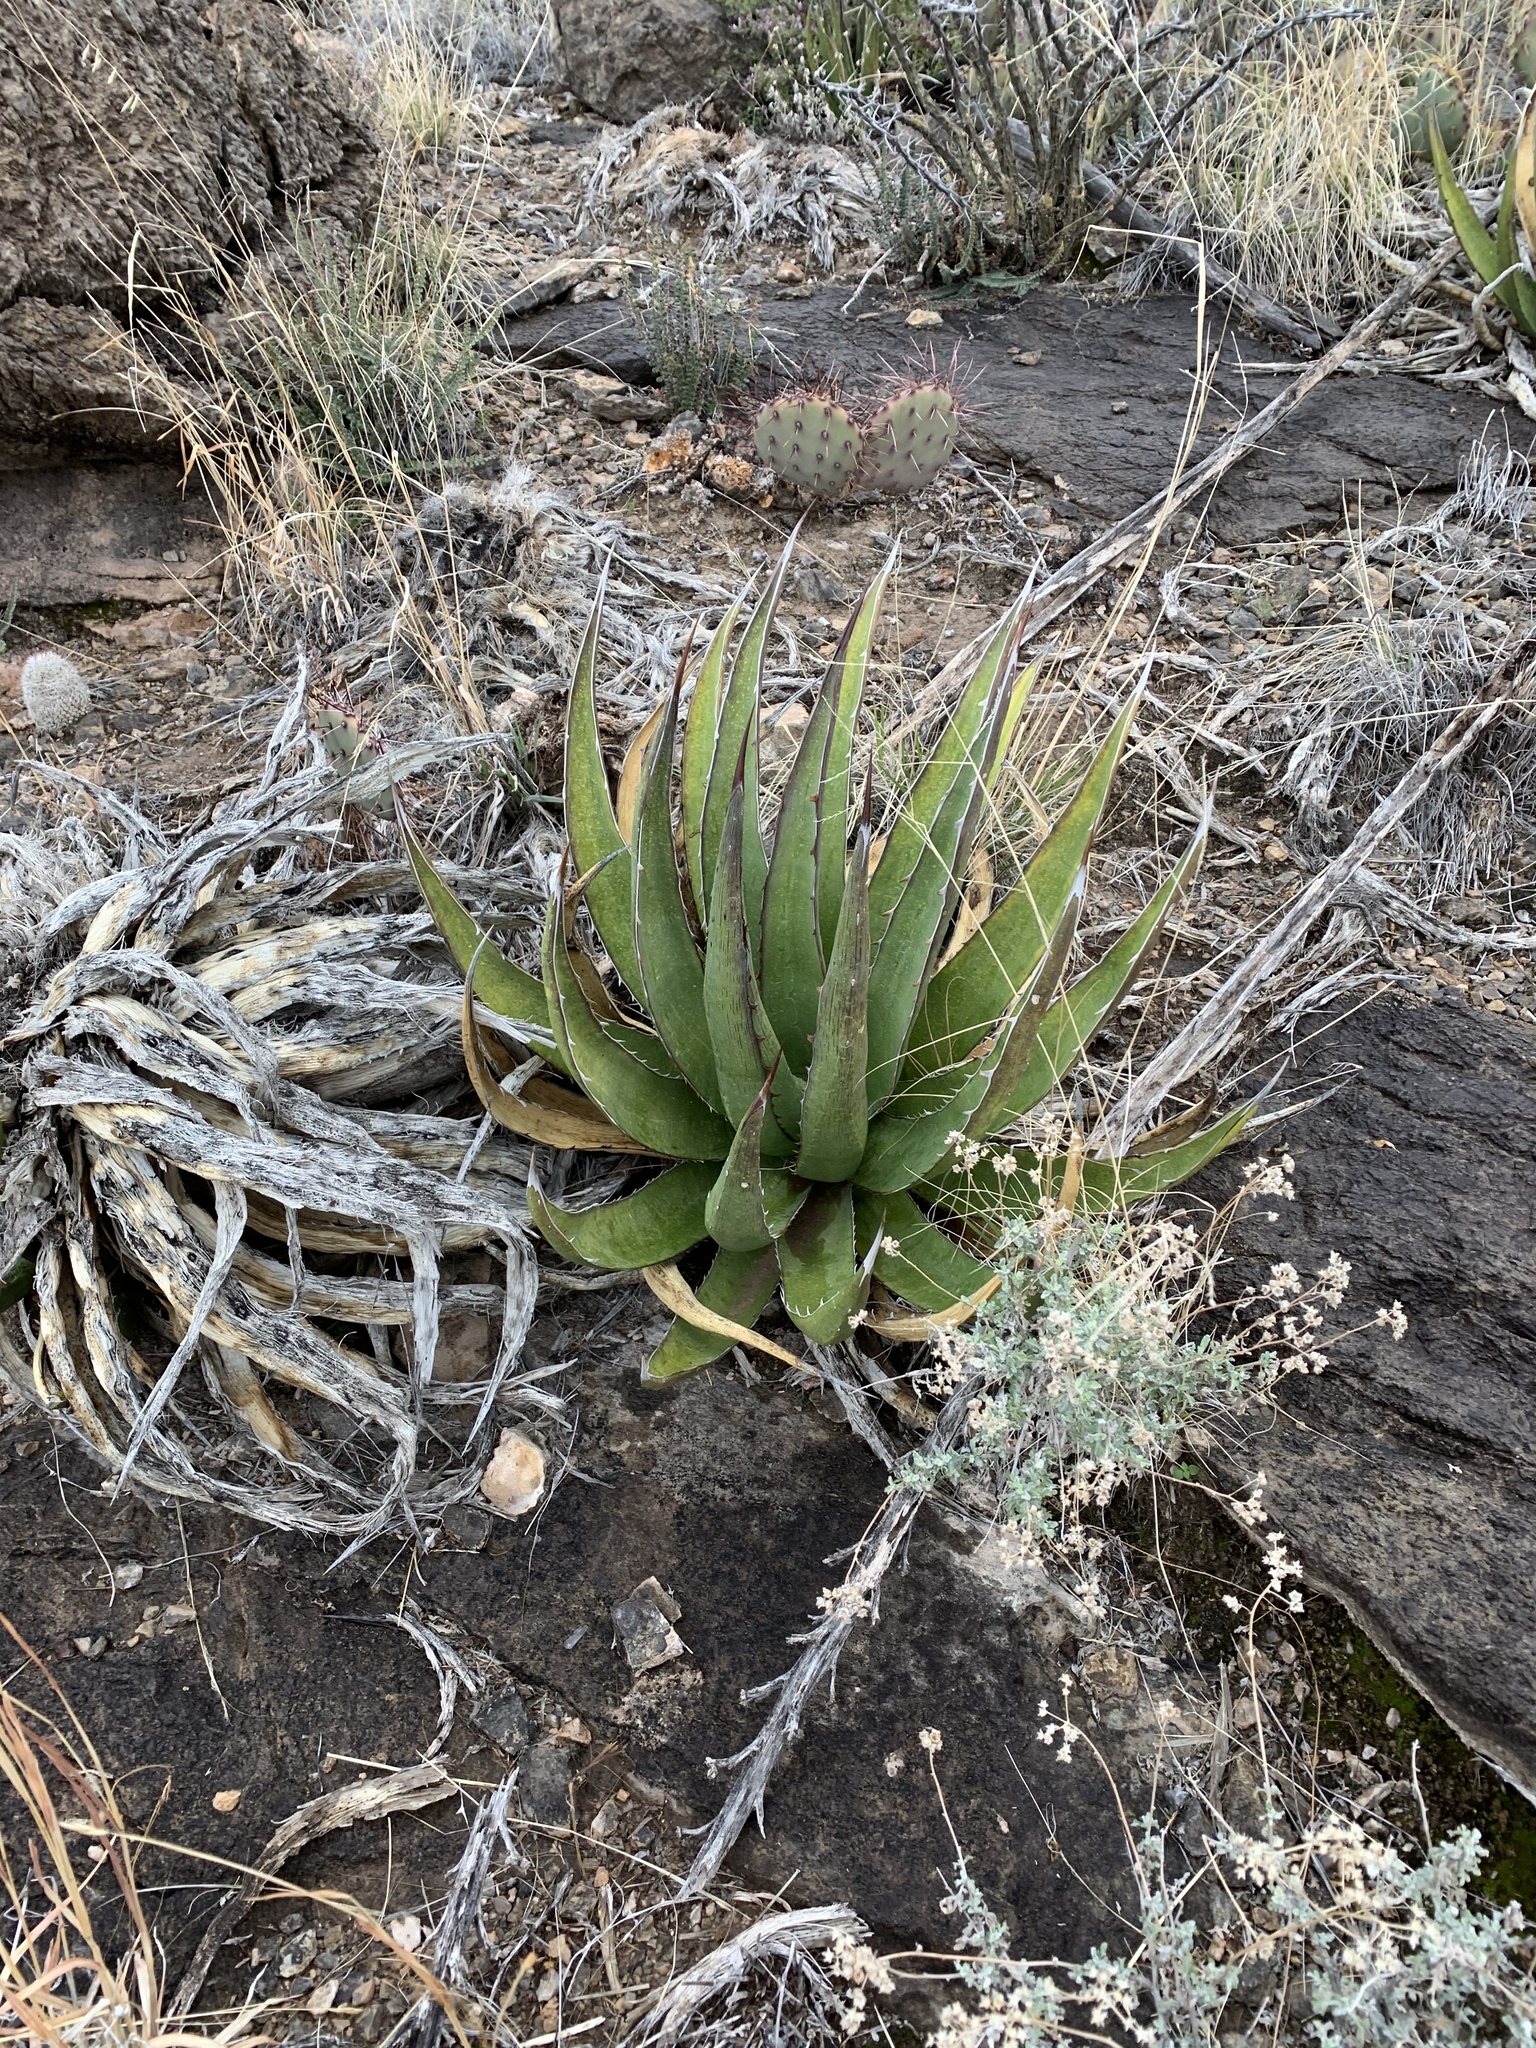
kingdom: Plantae
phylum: Tracheophyta
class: Liliopsida
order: Asparagales
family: Asparagaceae
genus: Agave
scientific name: Agave lechuguilla
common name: Lecheguilla agave
